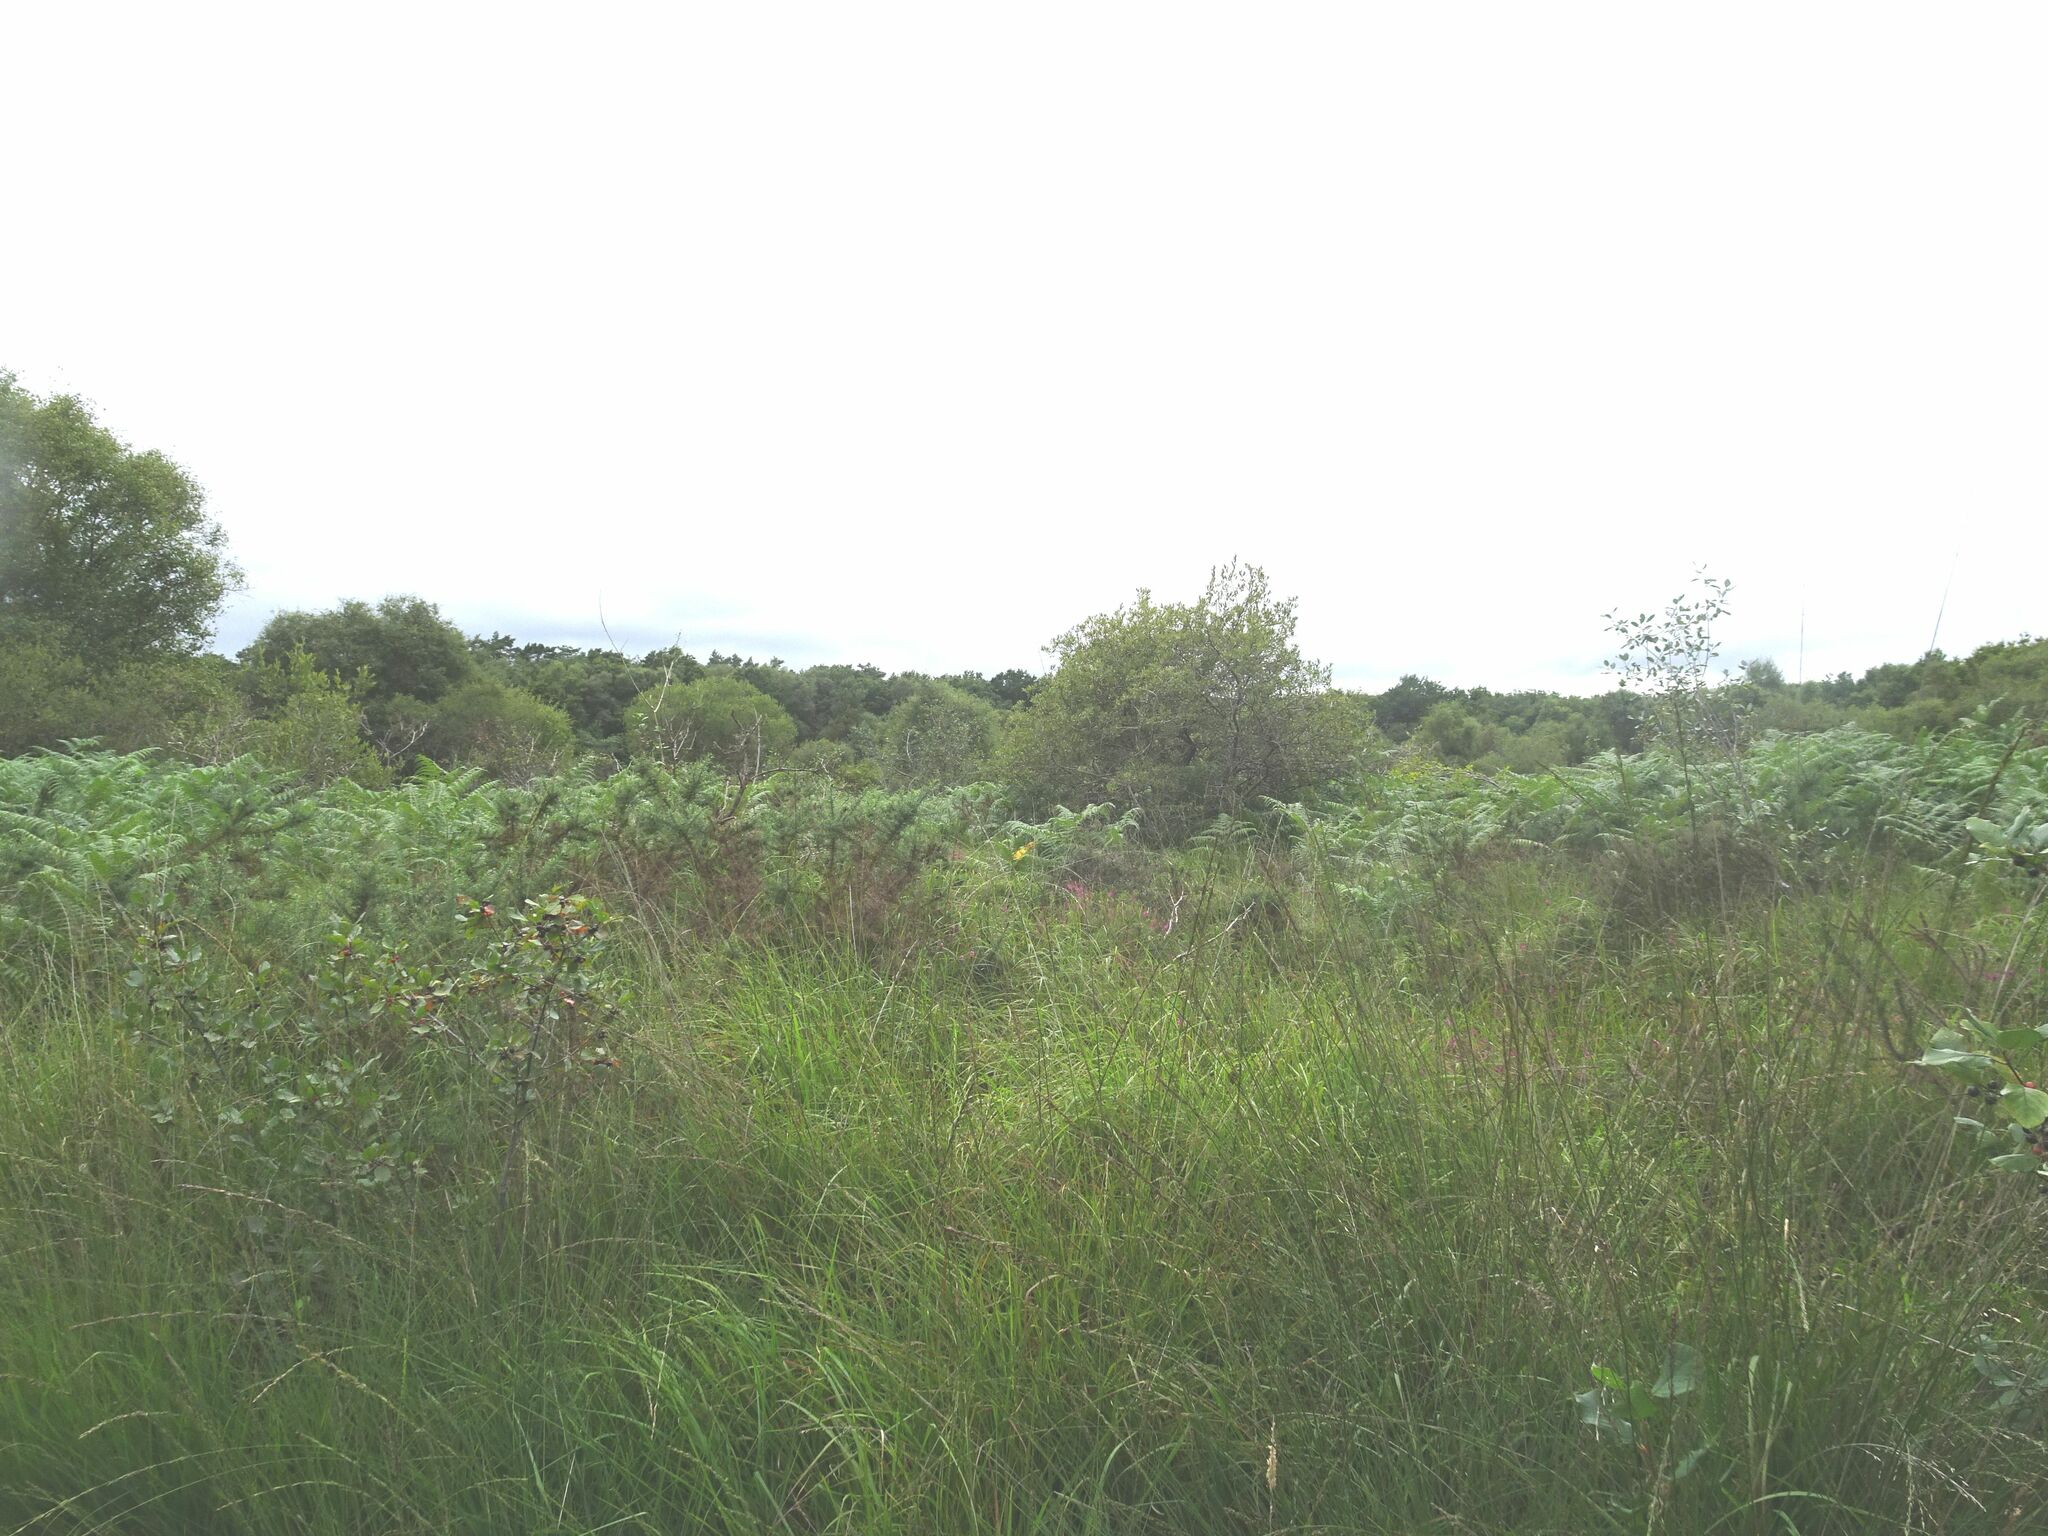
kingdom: Plantae
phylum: Tracheophyta
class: Polypodiopsida
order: Polypodiales
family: Dennstaedtiaceae
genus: Pteridium
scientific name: Pteridium aquilinum
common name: Bracken
